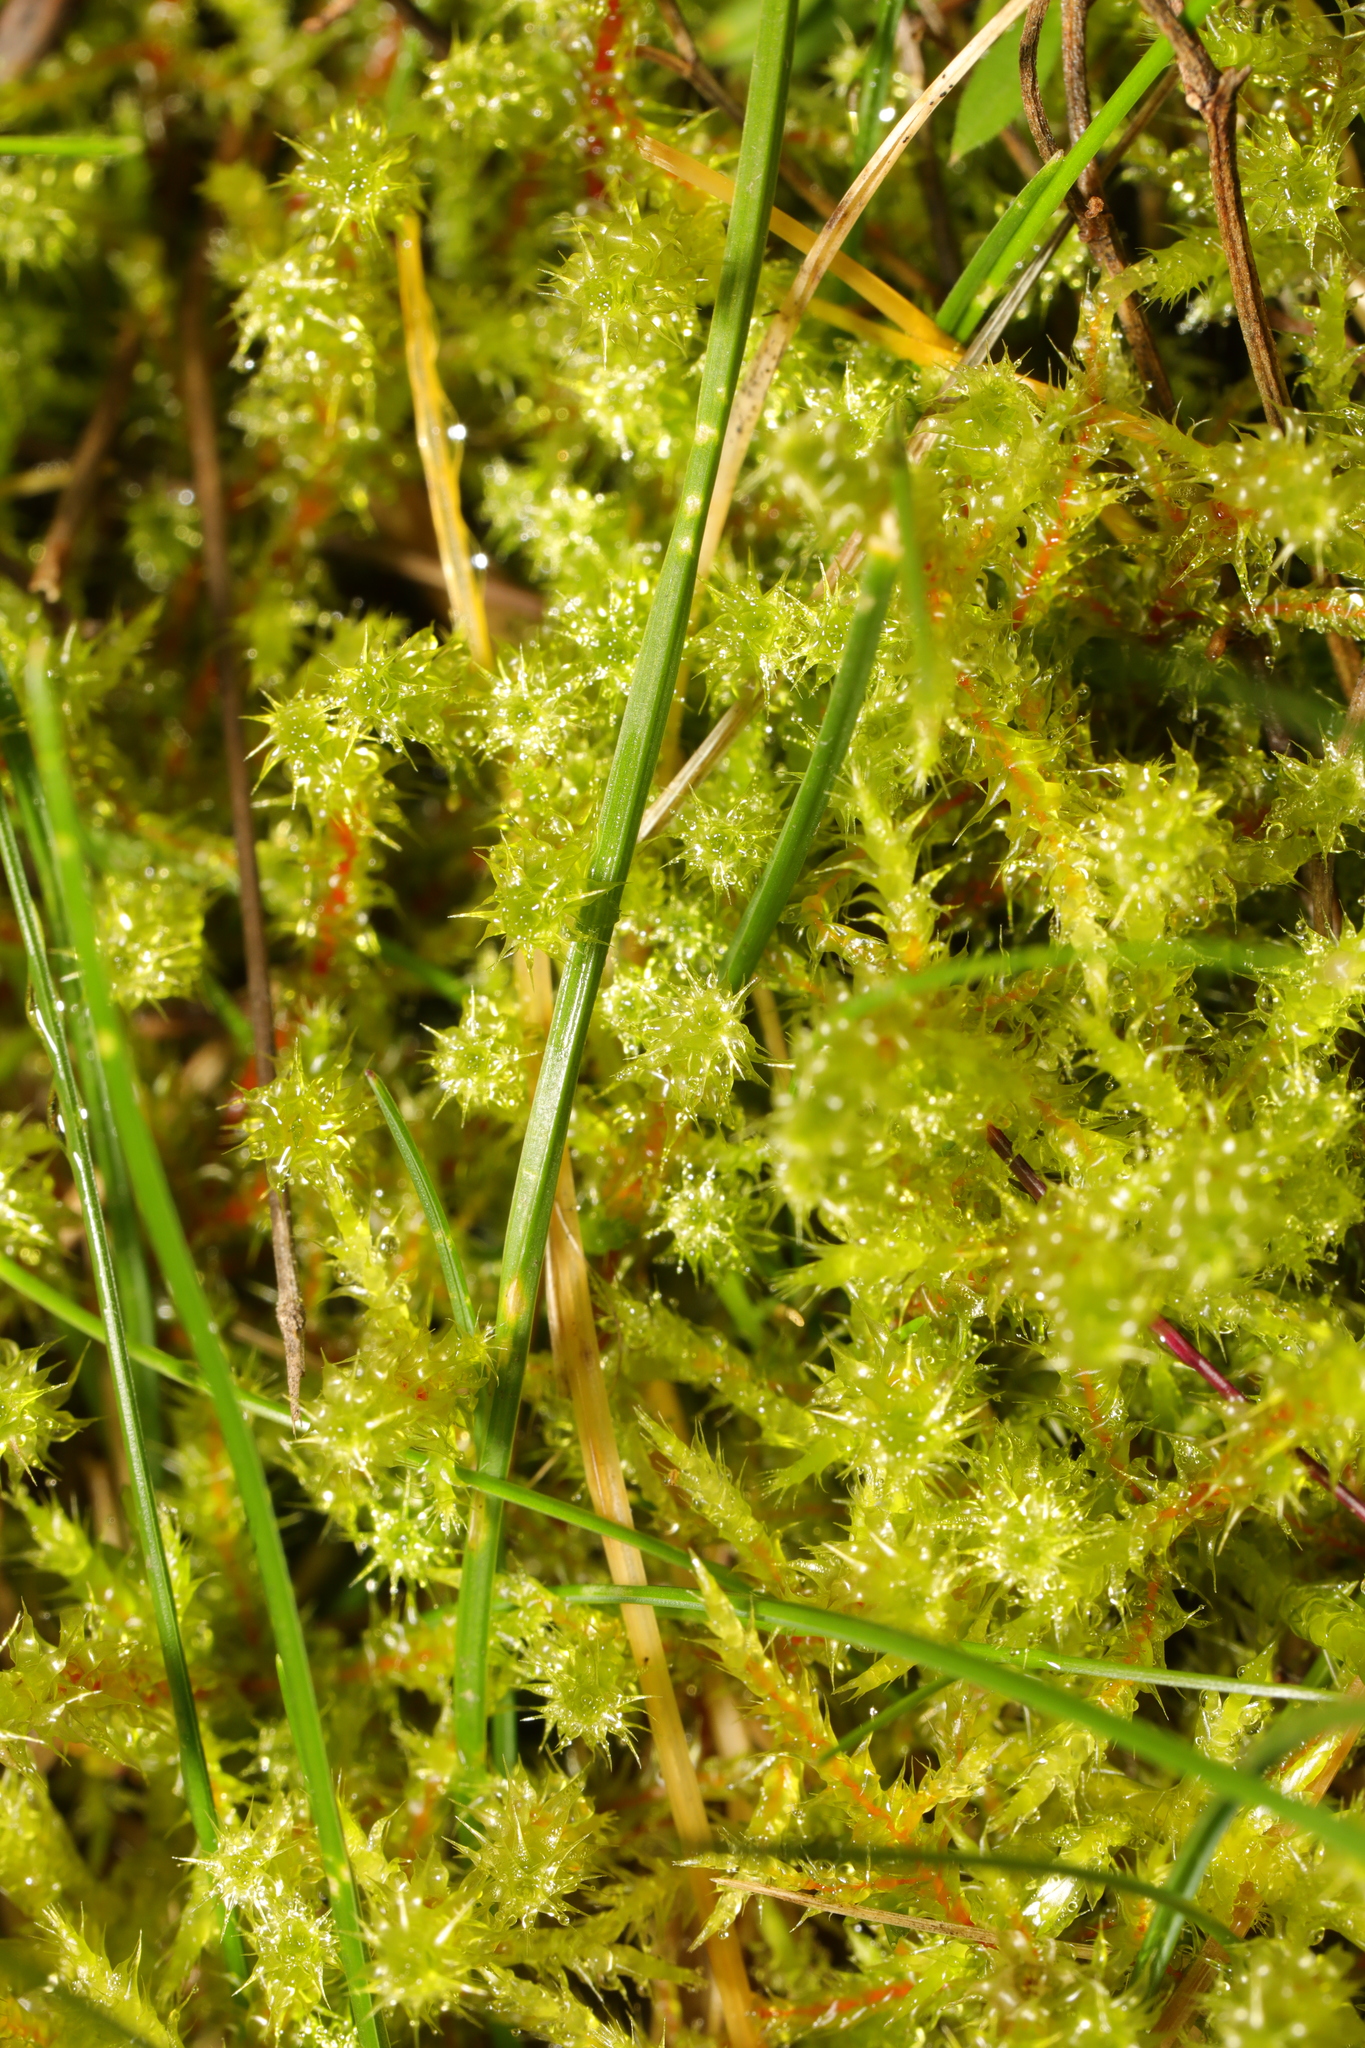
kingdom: Plantae
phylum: Bryophyta
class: Bryopsida
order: Hypnales
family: Hylocomiaceae
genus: Rhytidiadelphus
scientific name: Rhytidiadelphus squarrosus
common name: Springy turf-moss
